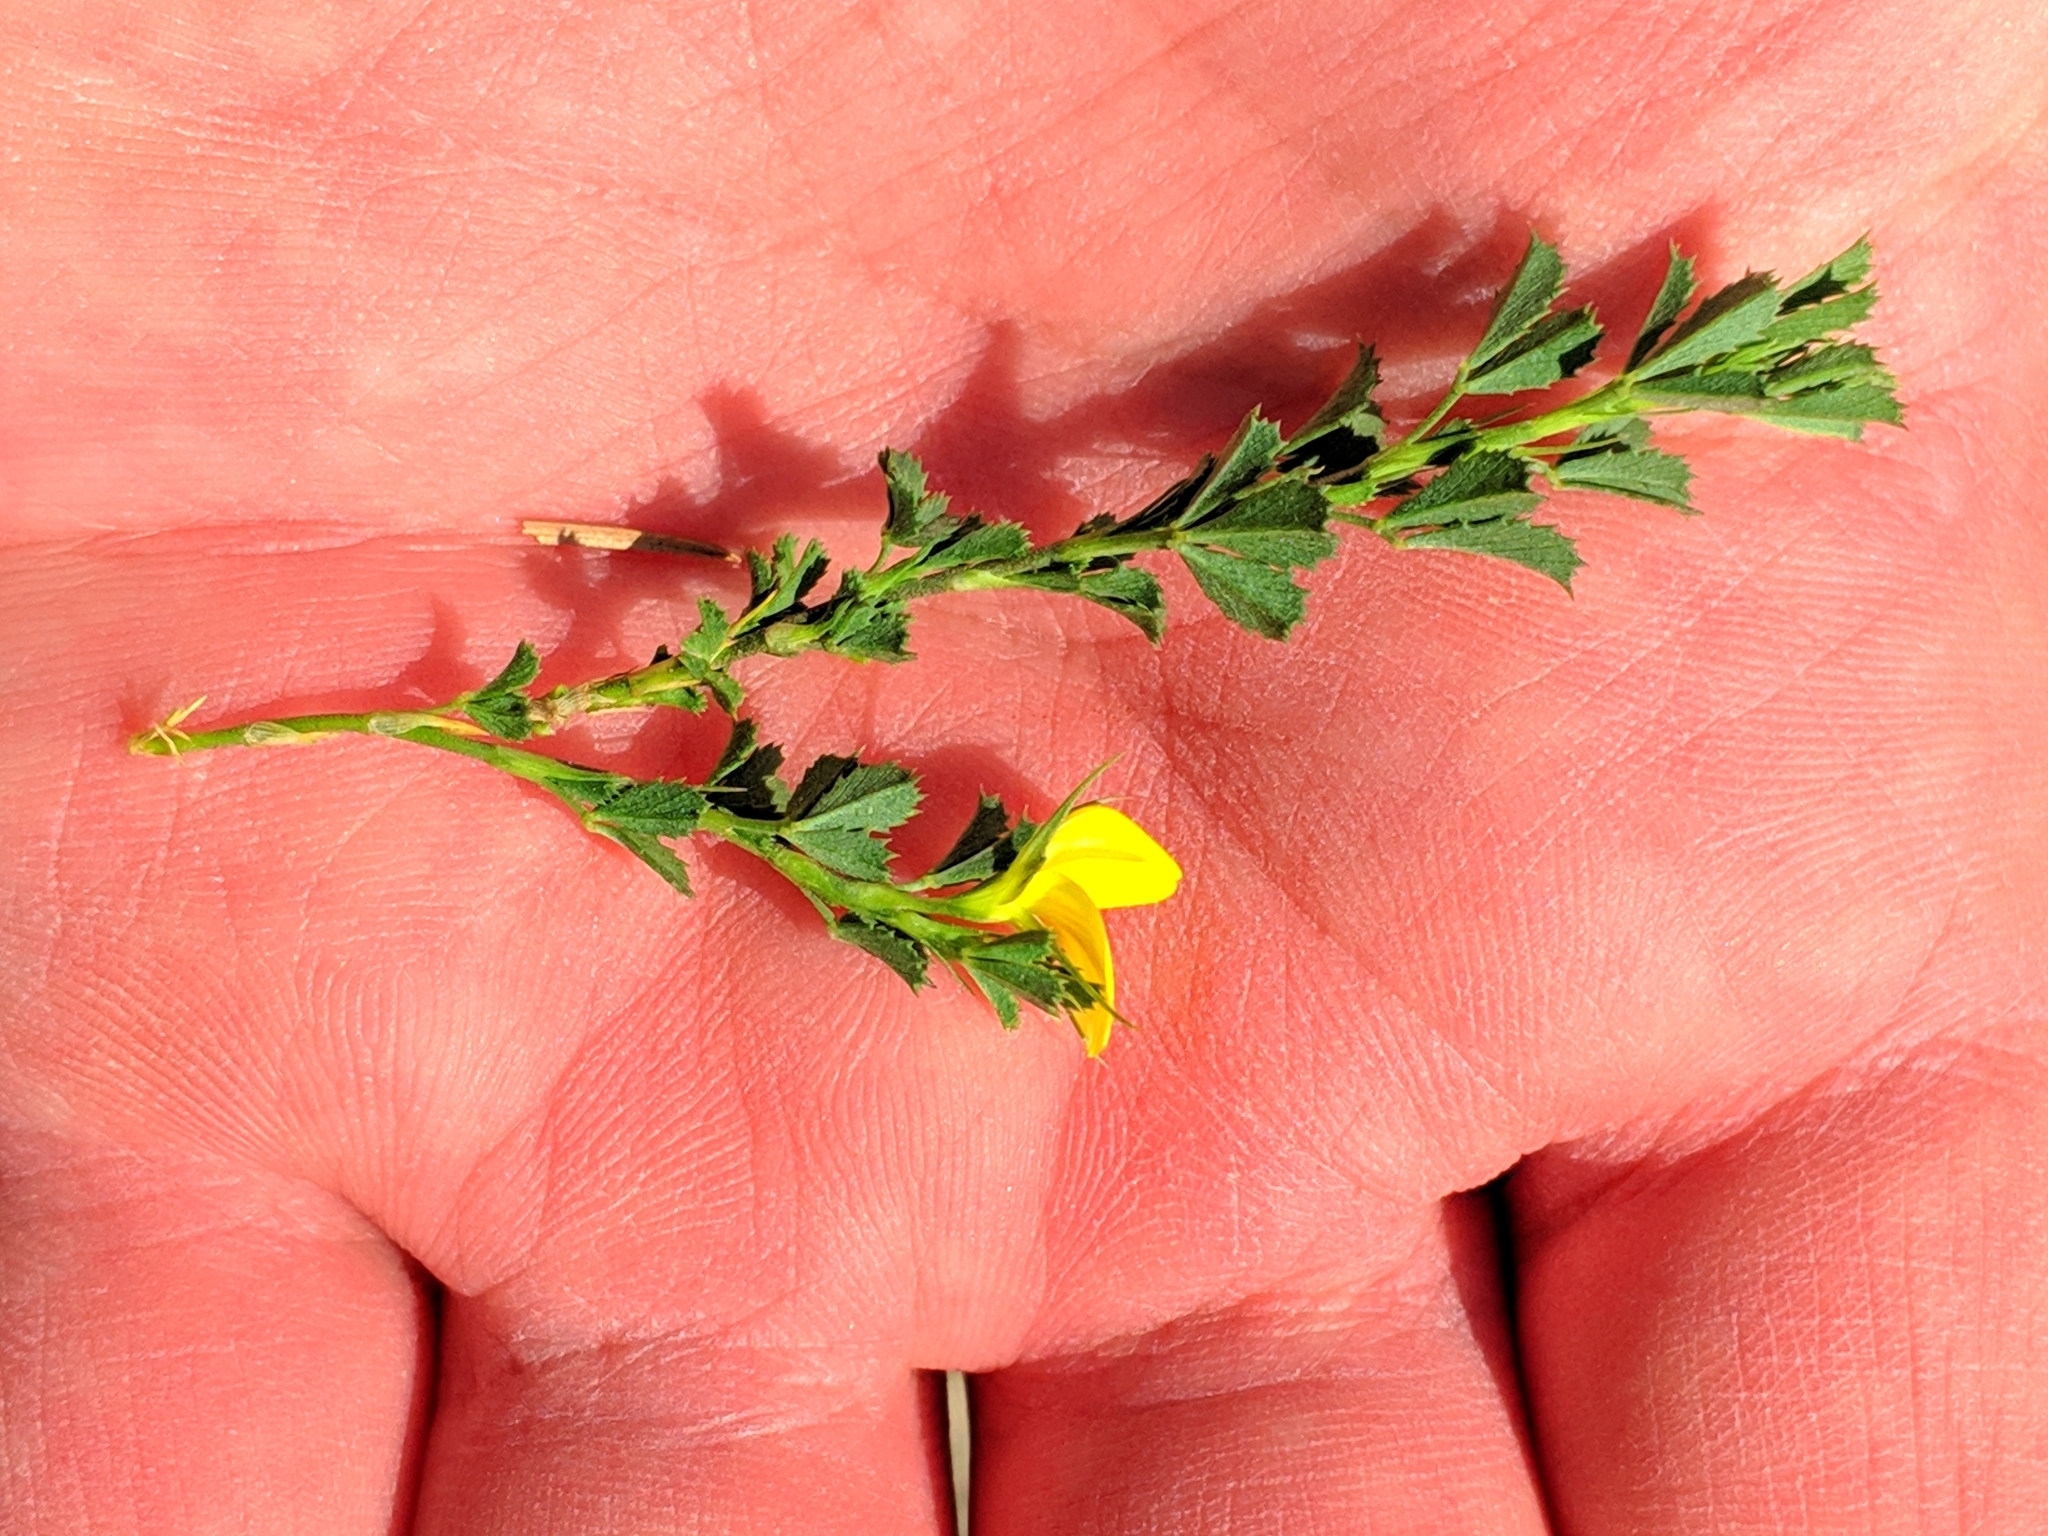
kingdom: Plantae
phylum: Tracheophyta
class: Magnoliopsida
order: Fabales
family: Fabaceae
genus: Ononis
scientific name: Ononis minutissima
